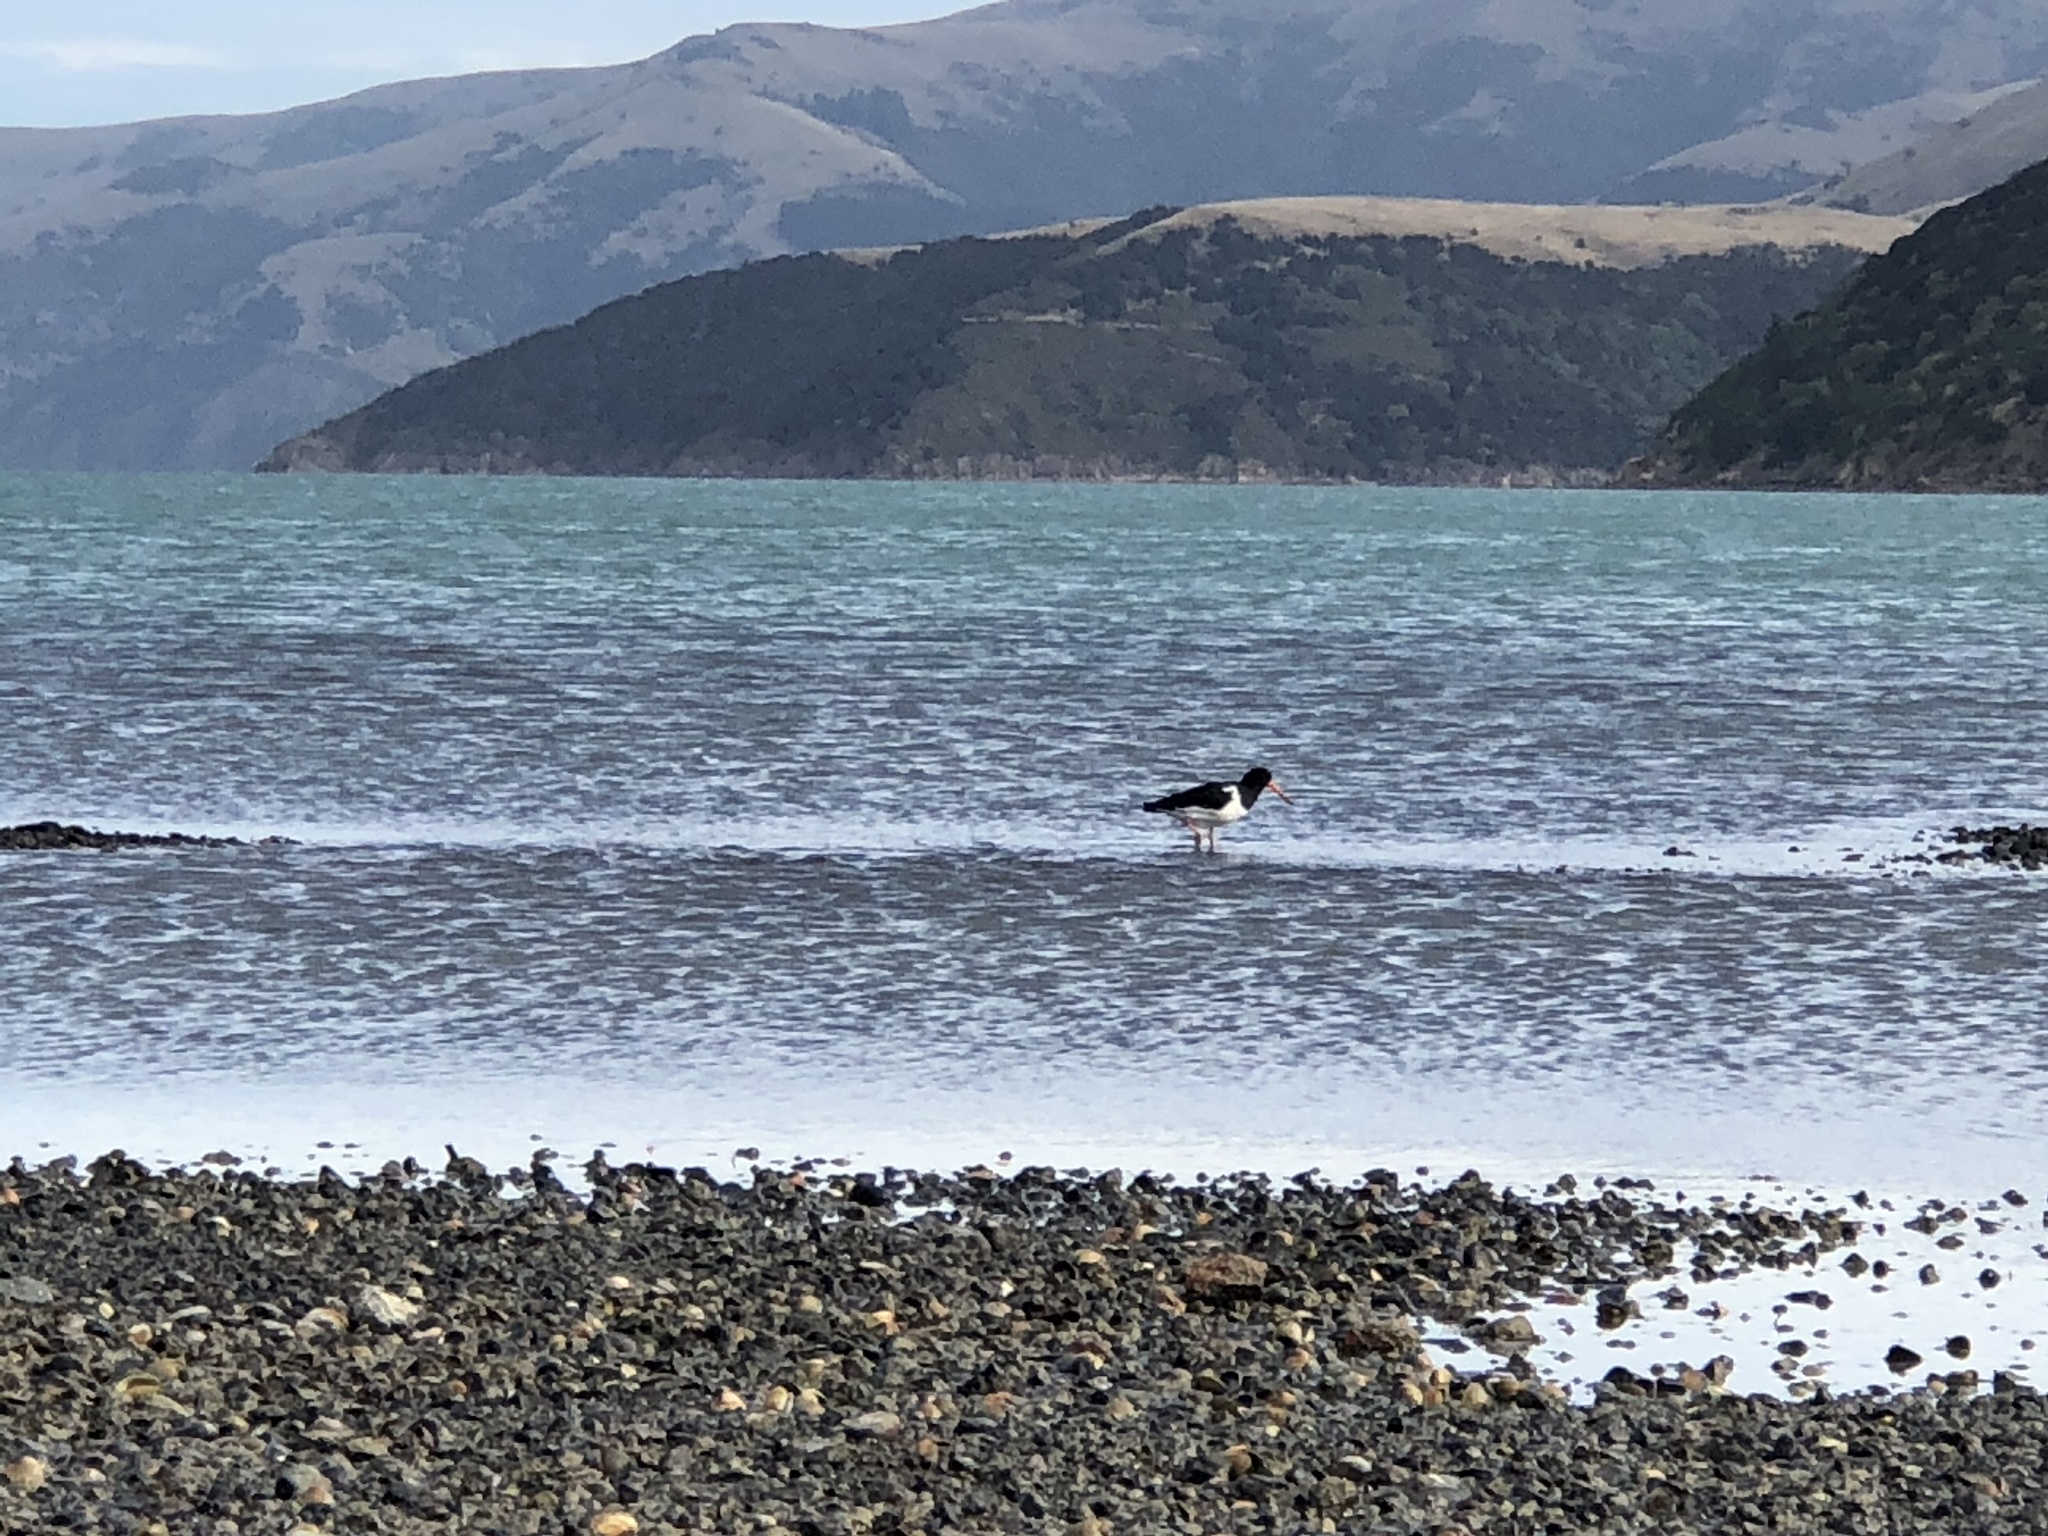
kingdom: Animalia
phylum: Chordata
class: Aves
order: Charadriiformes
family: Haematopodidae
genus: Haematopus
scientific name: Haematopus finschi
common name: South island oystercatcher
